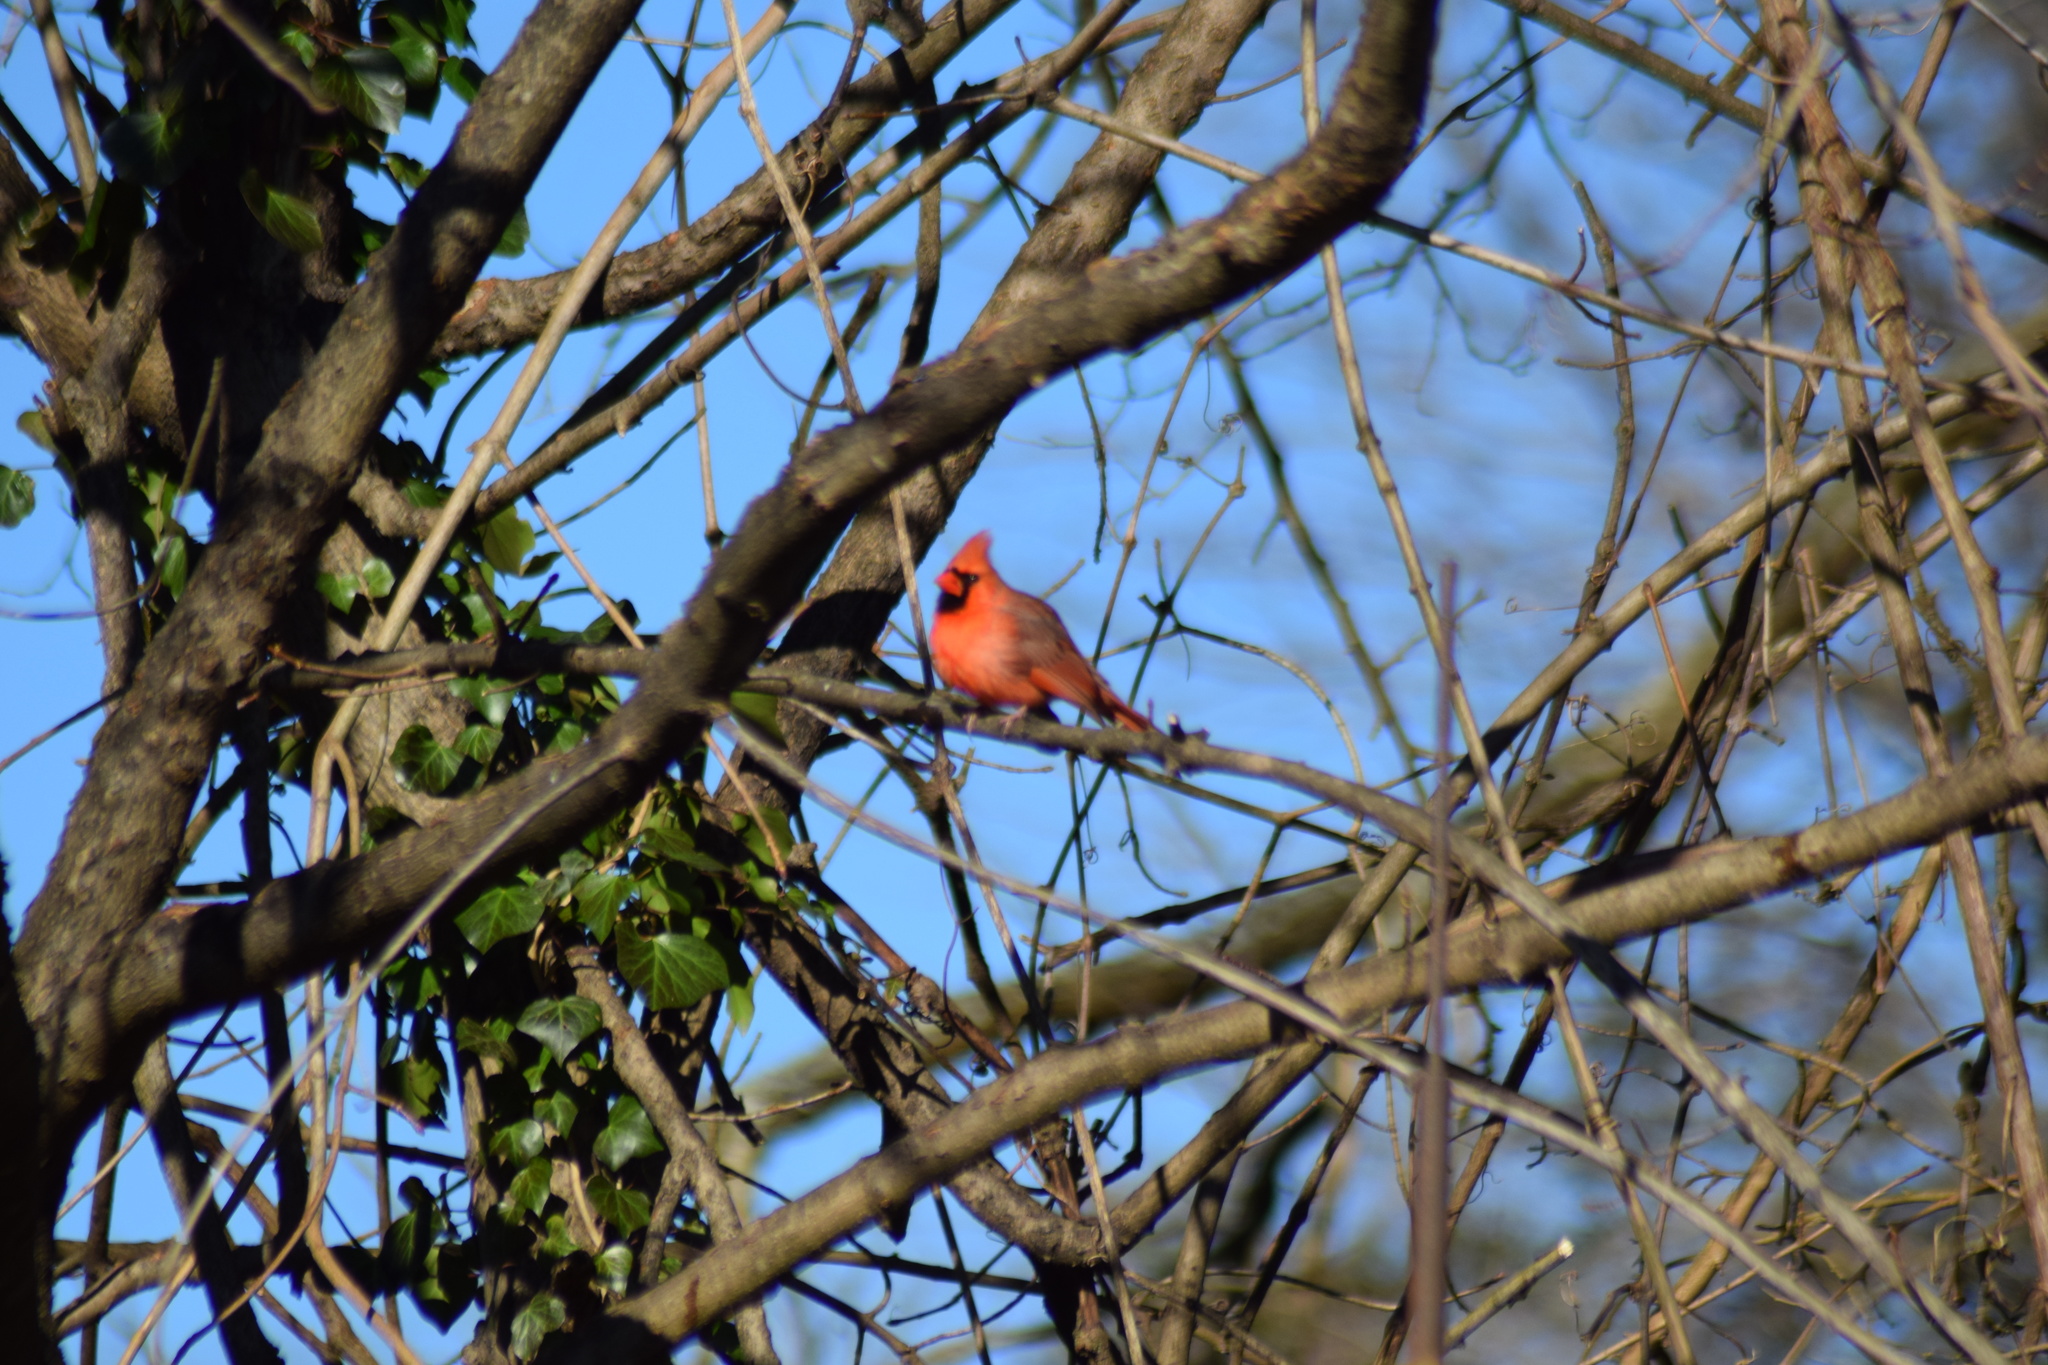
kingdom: Animalia
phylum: Chordata
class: Aves
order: Passeriformes
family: Cardinalidae
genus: Cardinalis
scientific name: Cardinalis cardinalis
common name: Northern cardinal
